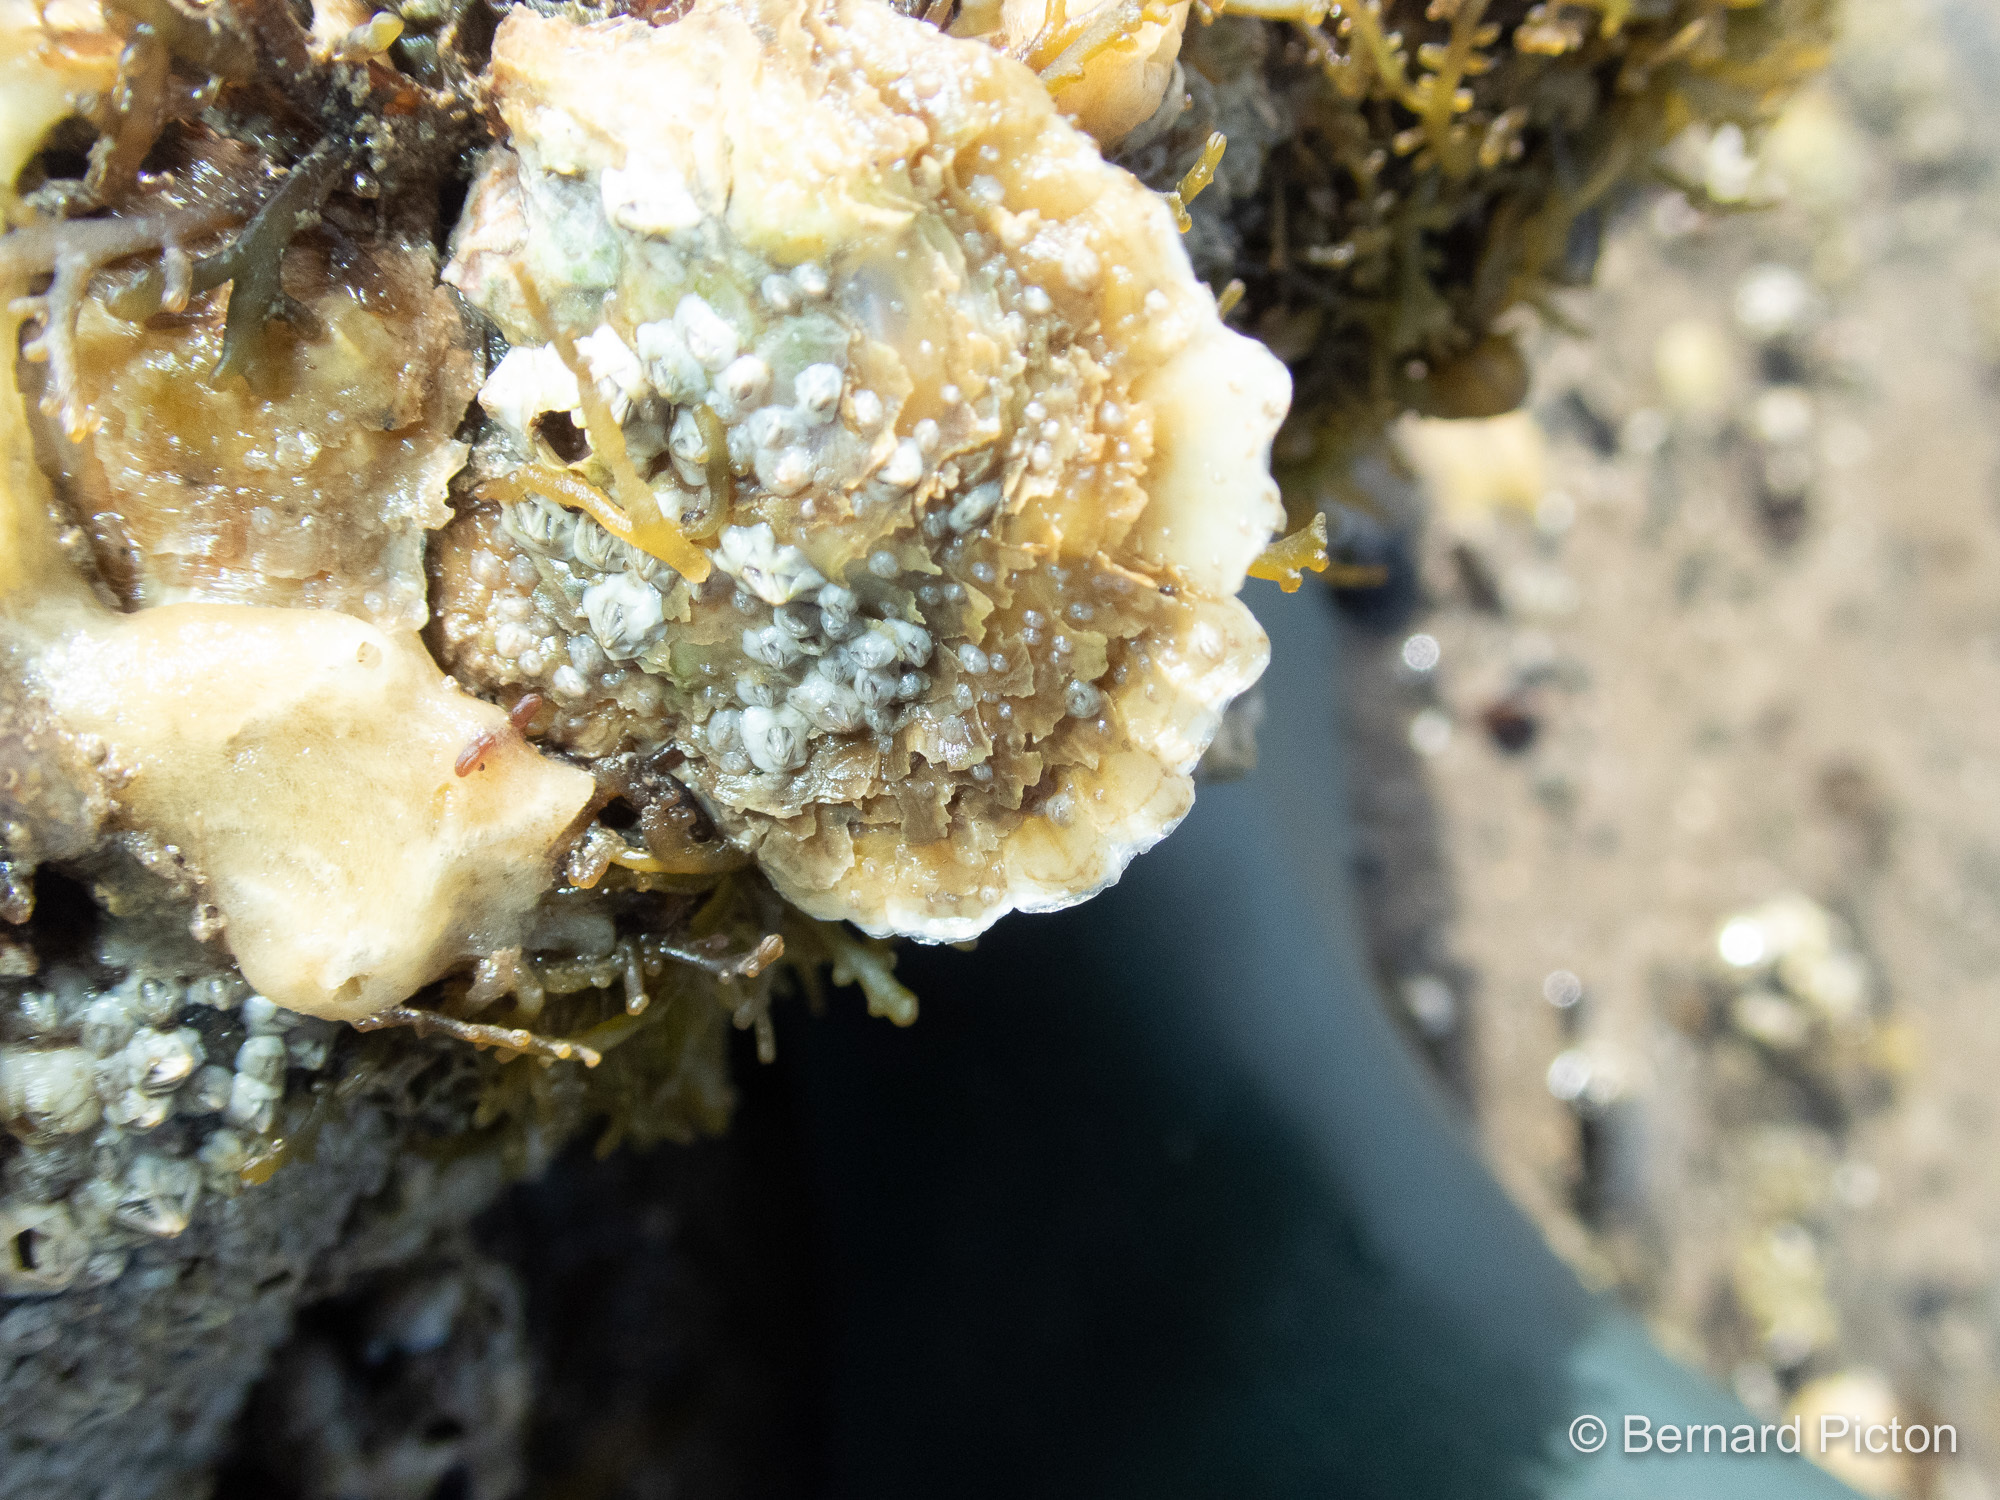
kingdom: Animalia
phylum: Mollusca
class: Bivalvia
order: Ostreida
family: Ostreidae
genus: Ostrea
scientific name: Ostrea edulis
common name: Flat oyster
